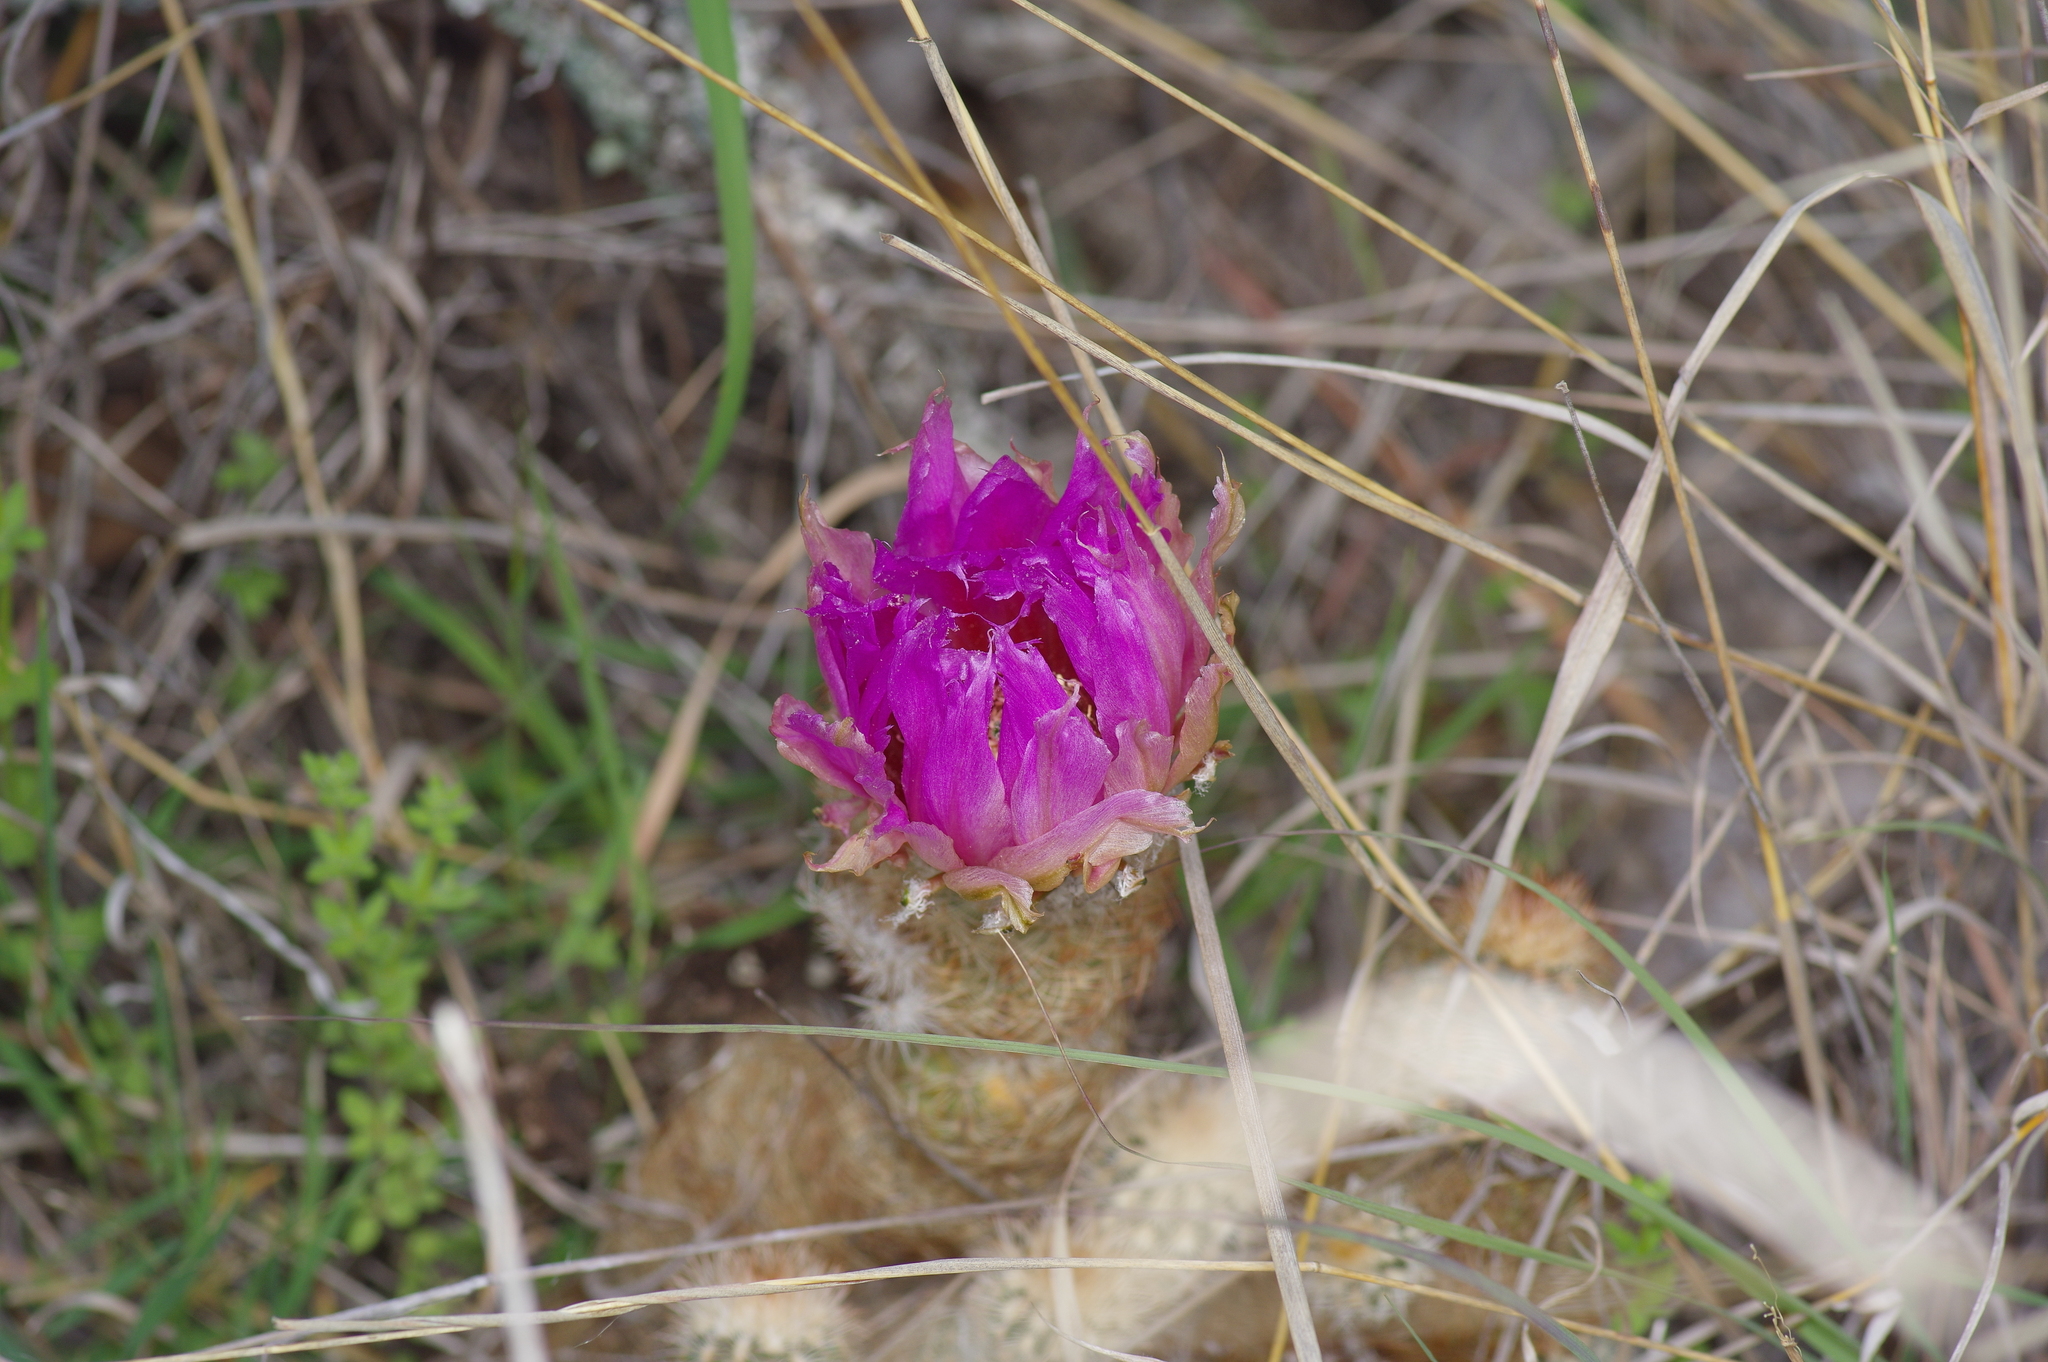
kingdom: Plantae
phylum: Tracheophyta
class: Magnoliopsida
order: Caryophyllales
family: Cactaceae
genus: Echinocereus
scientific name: Echinocereus reichenbachii
